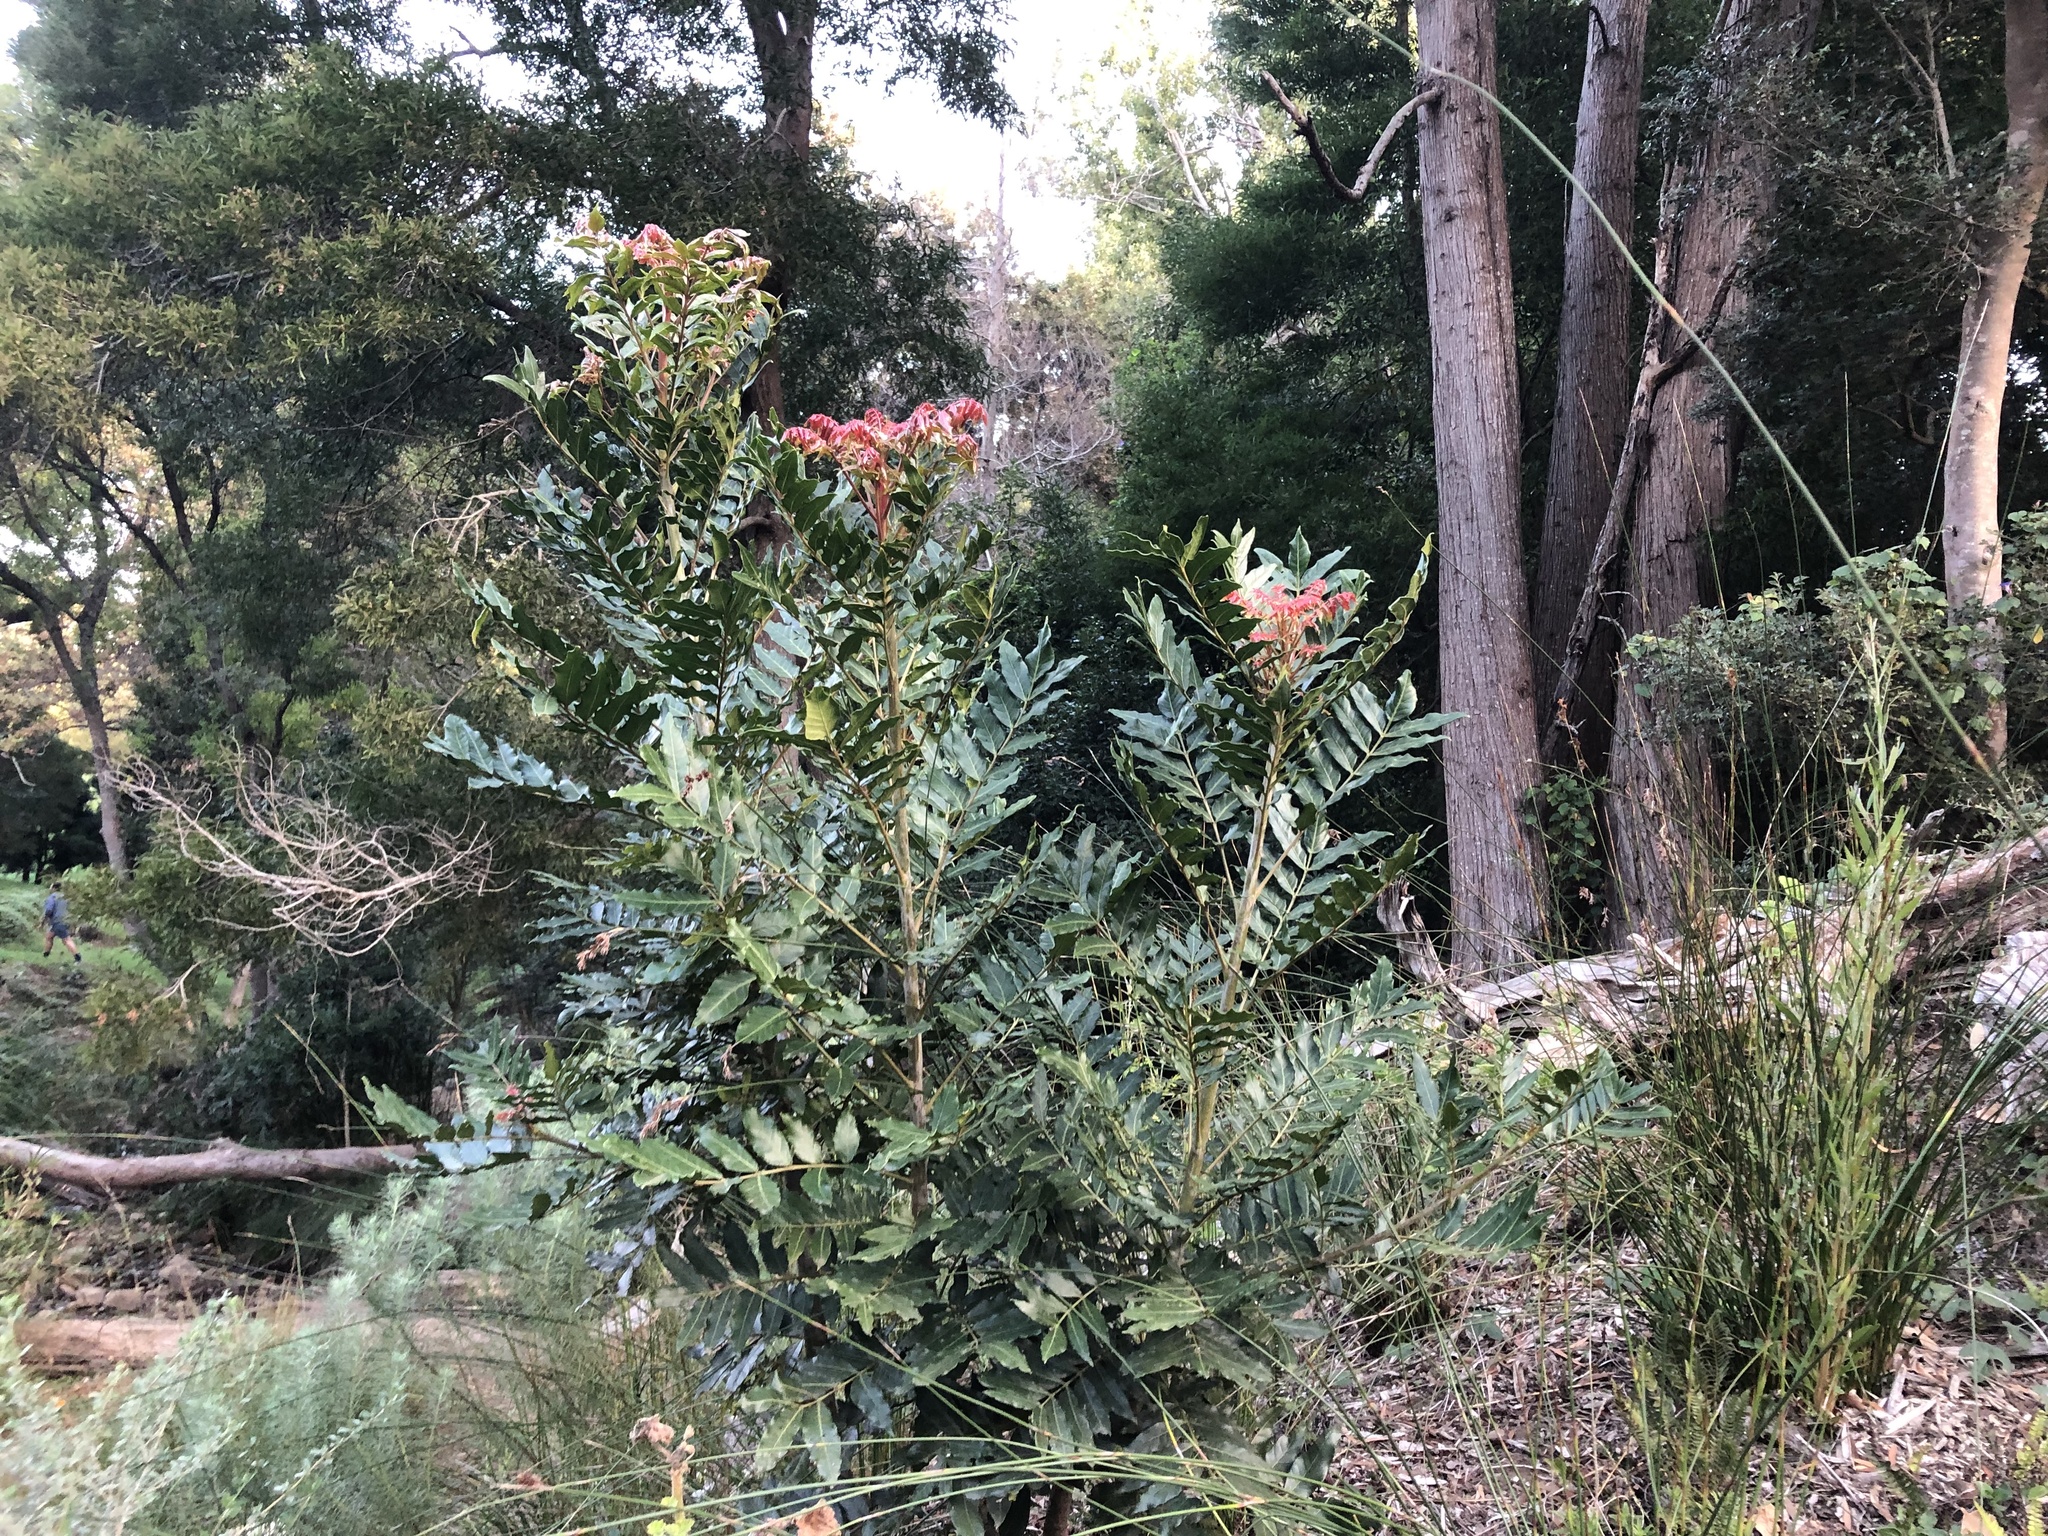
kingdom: Plantae
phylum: Tracheophyta
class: Magnoliopsida
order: Sapindales
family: Anacardiaceae
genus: Harpephyllum
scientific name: Harpephyllum caffrum
